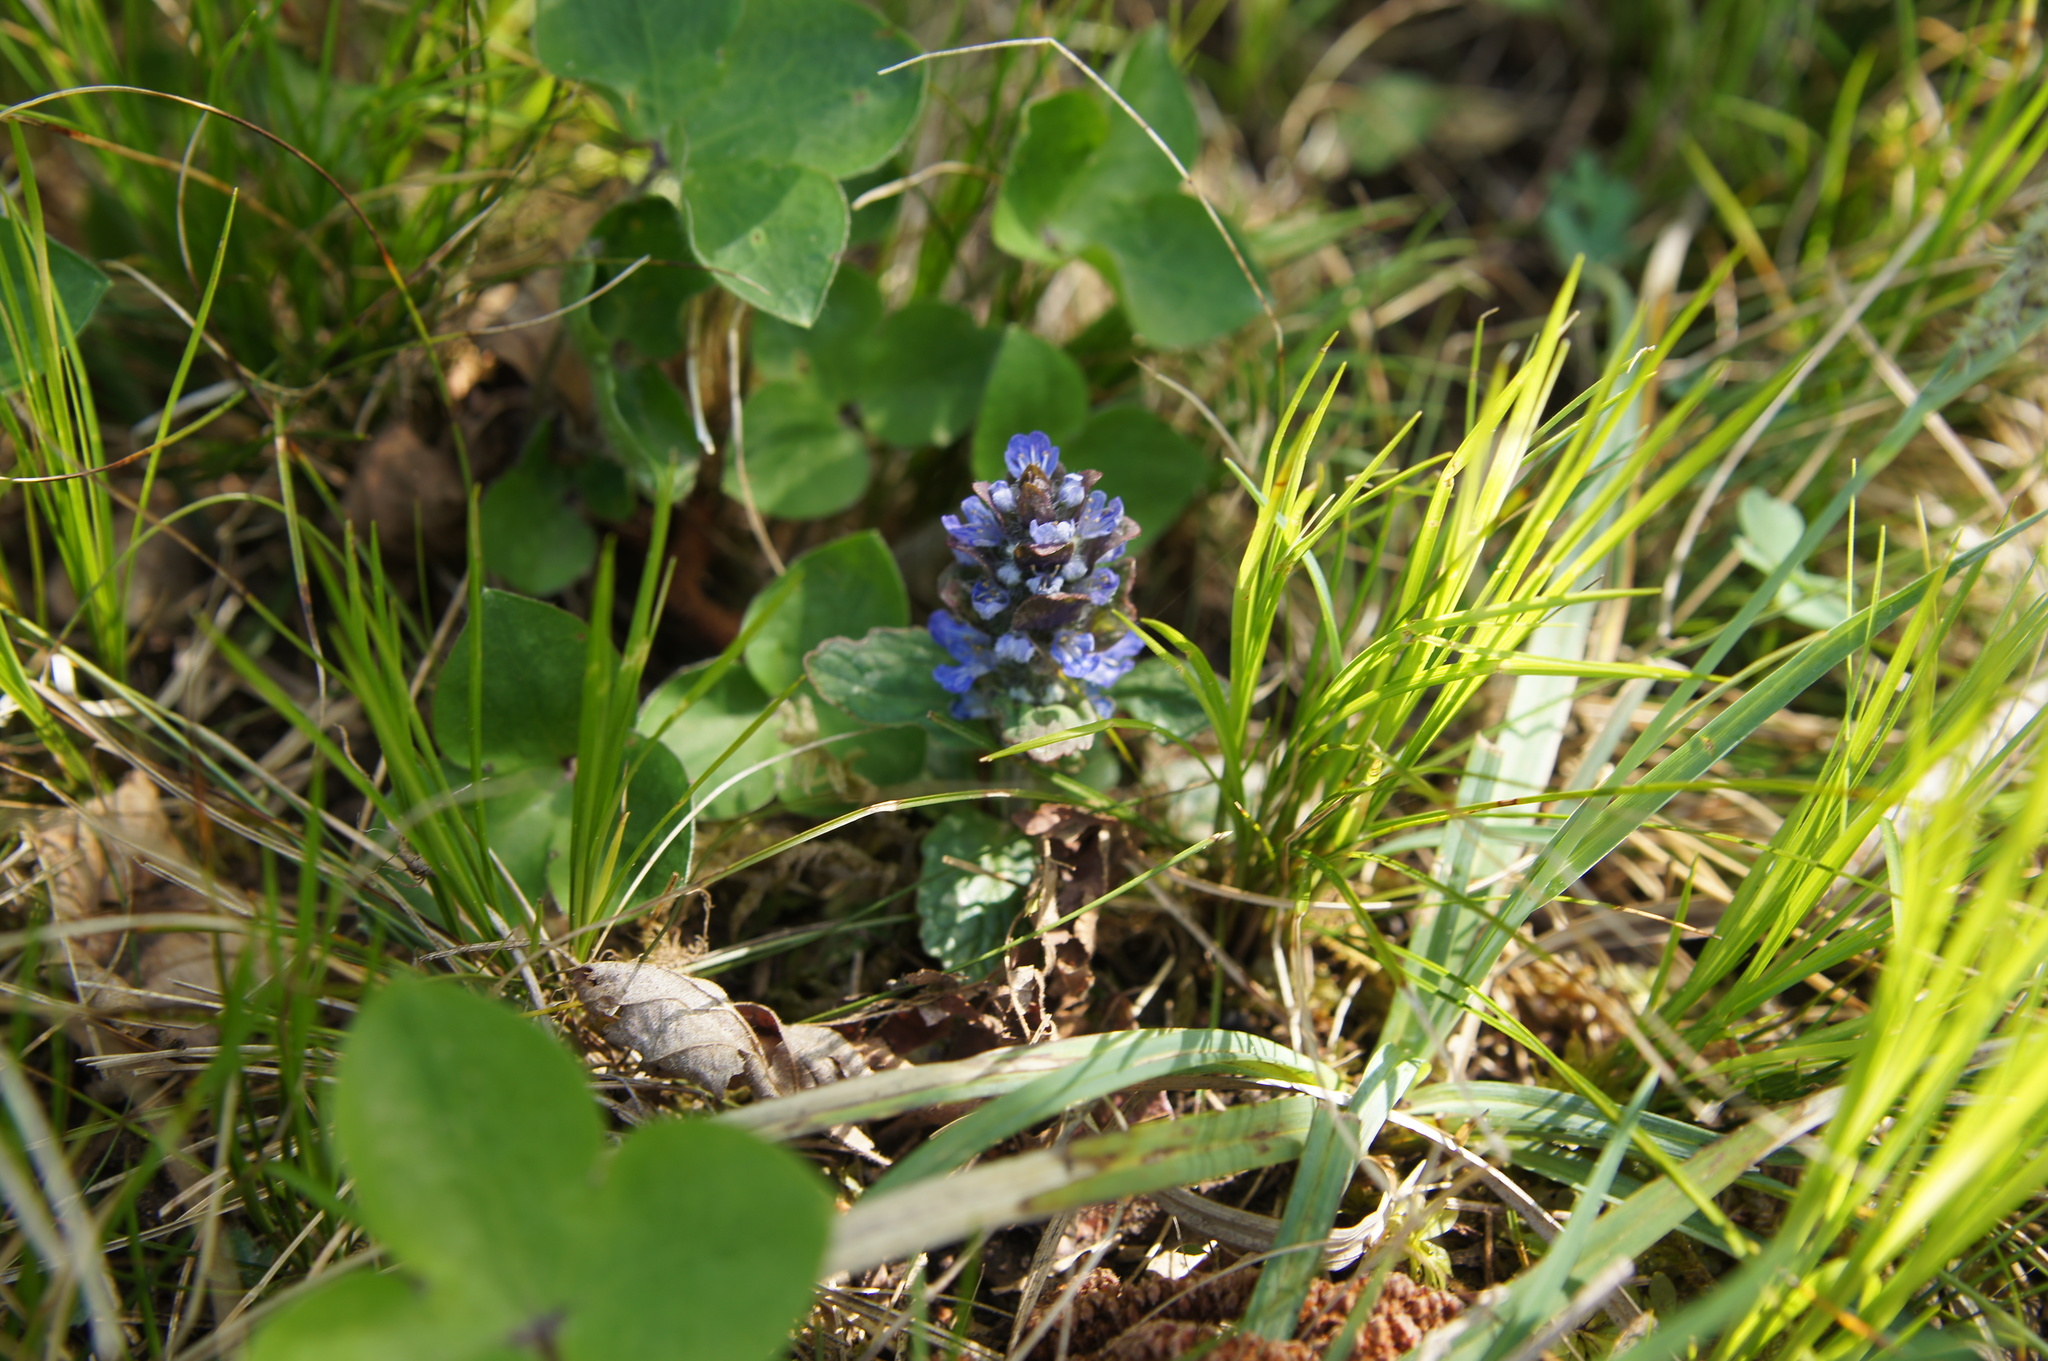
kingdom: Plantae
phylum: Tracheophyta
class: Magnoliopsida
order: Lamiales
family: Lamiaceae
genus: Ajuga
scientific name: Ajuga reptans
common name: Bugle
